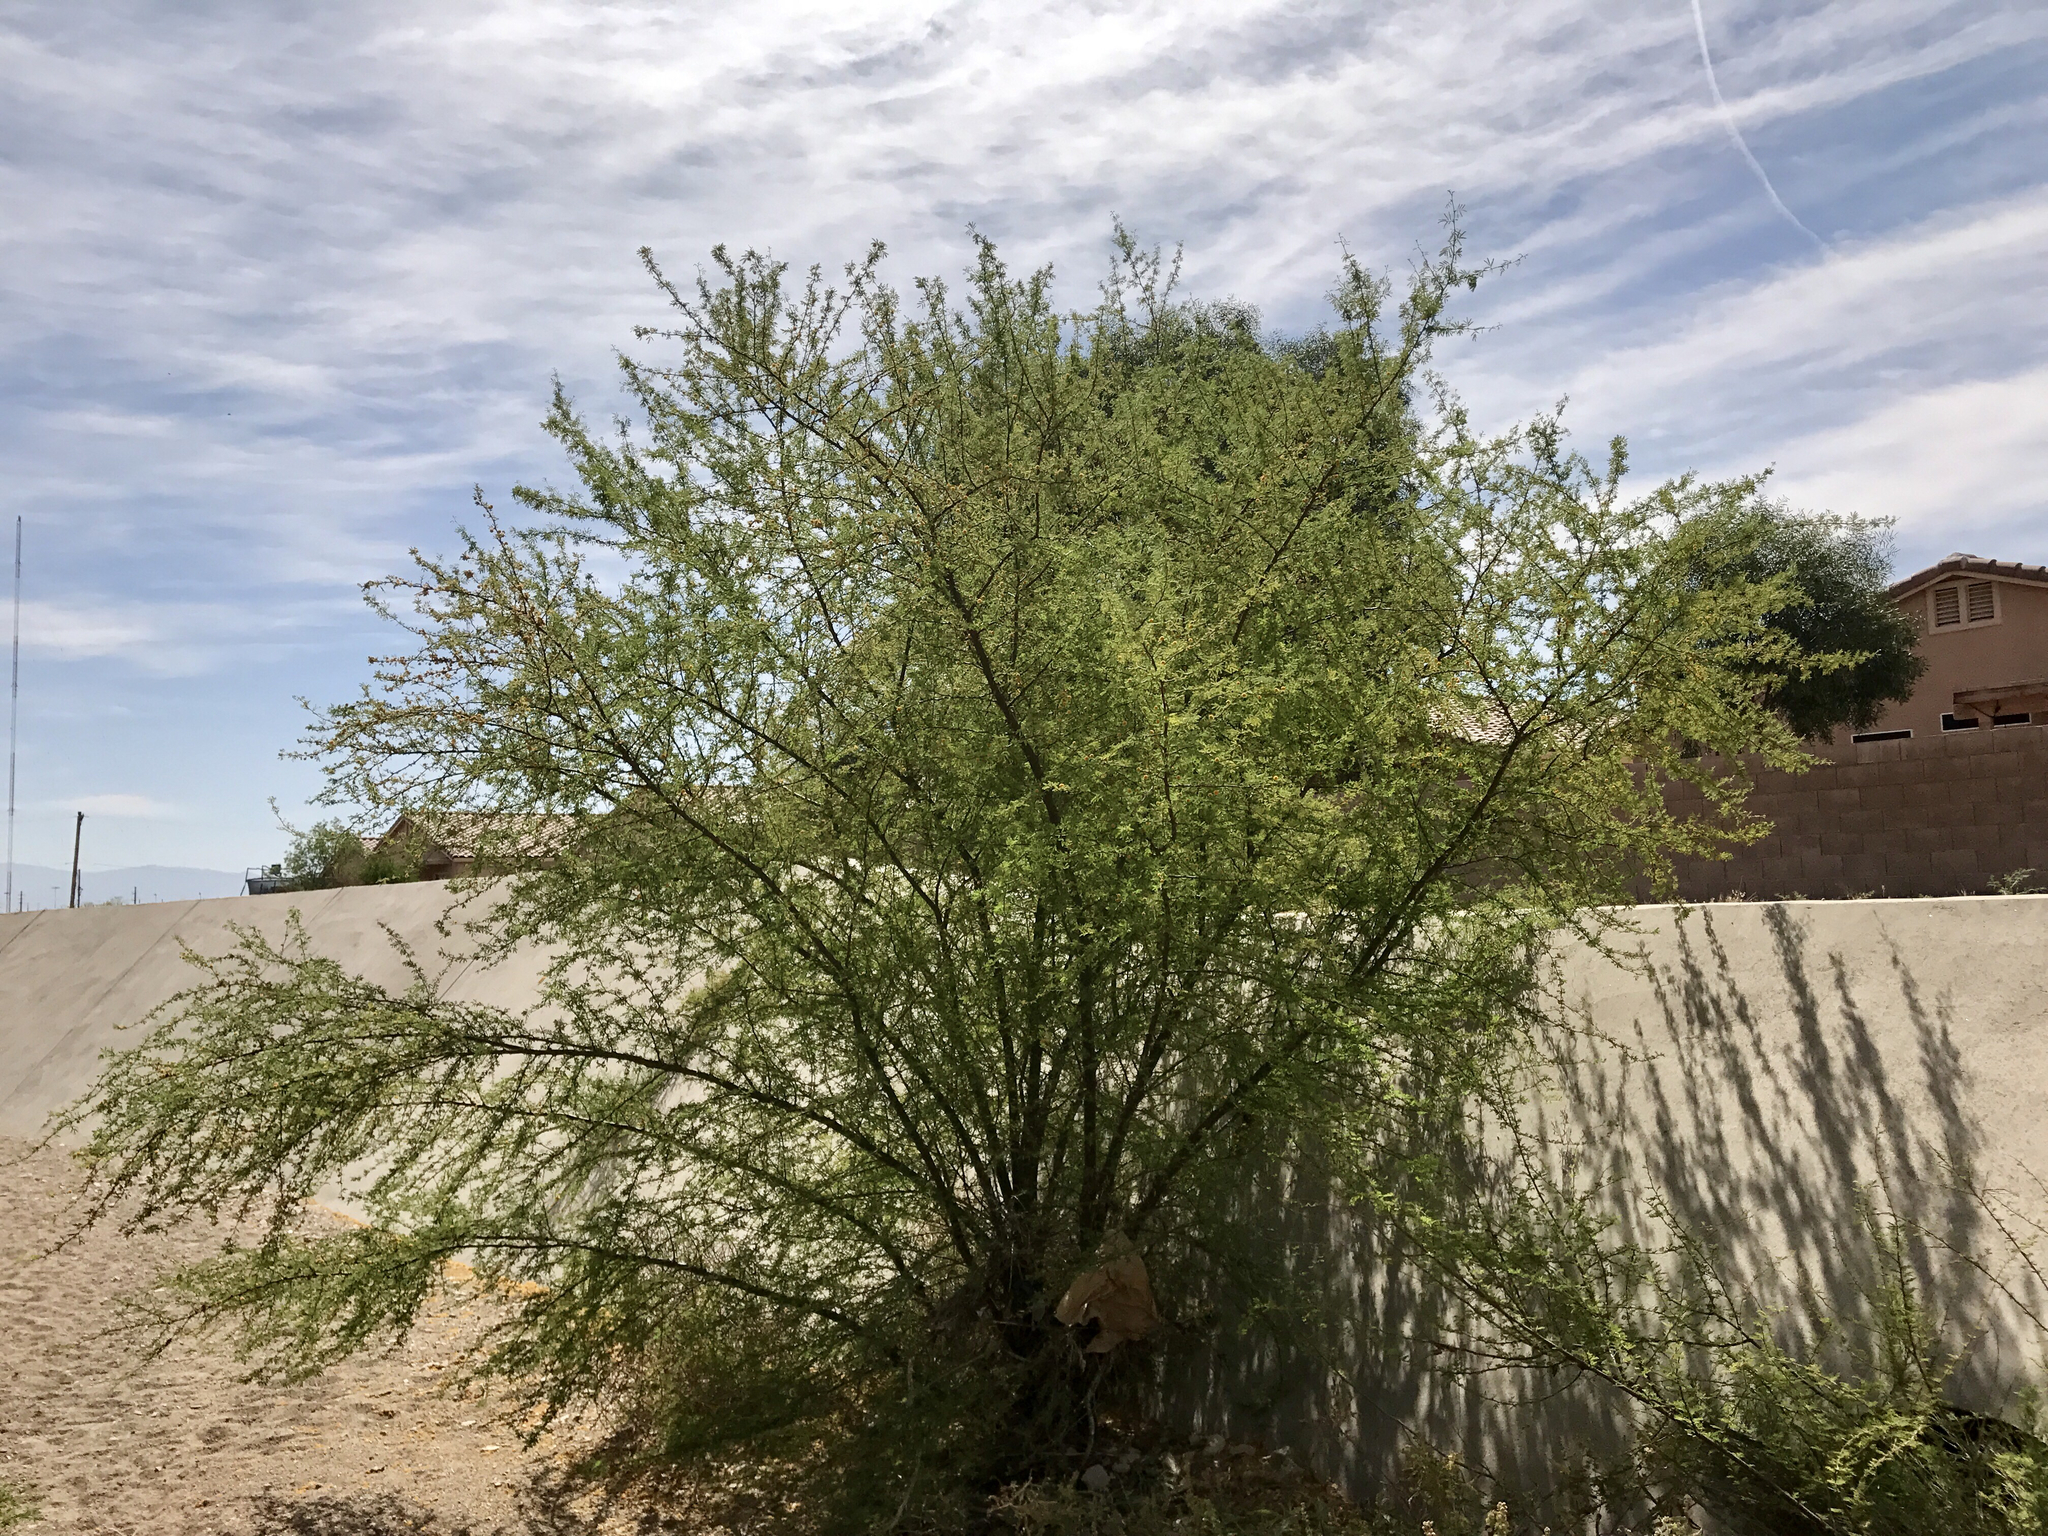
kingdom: Plantae
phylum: Tracheophyta
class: Magnoliopsida
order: Fabales
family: Fabaceae
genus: Vachellia
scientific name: Vachellia farnesiana
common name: Sweet acacia
